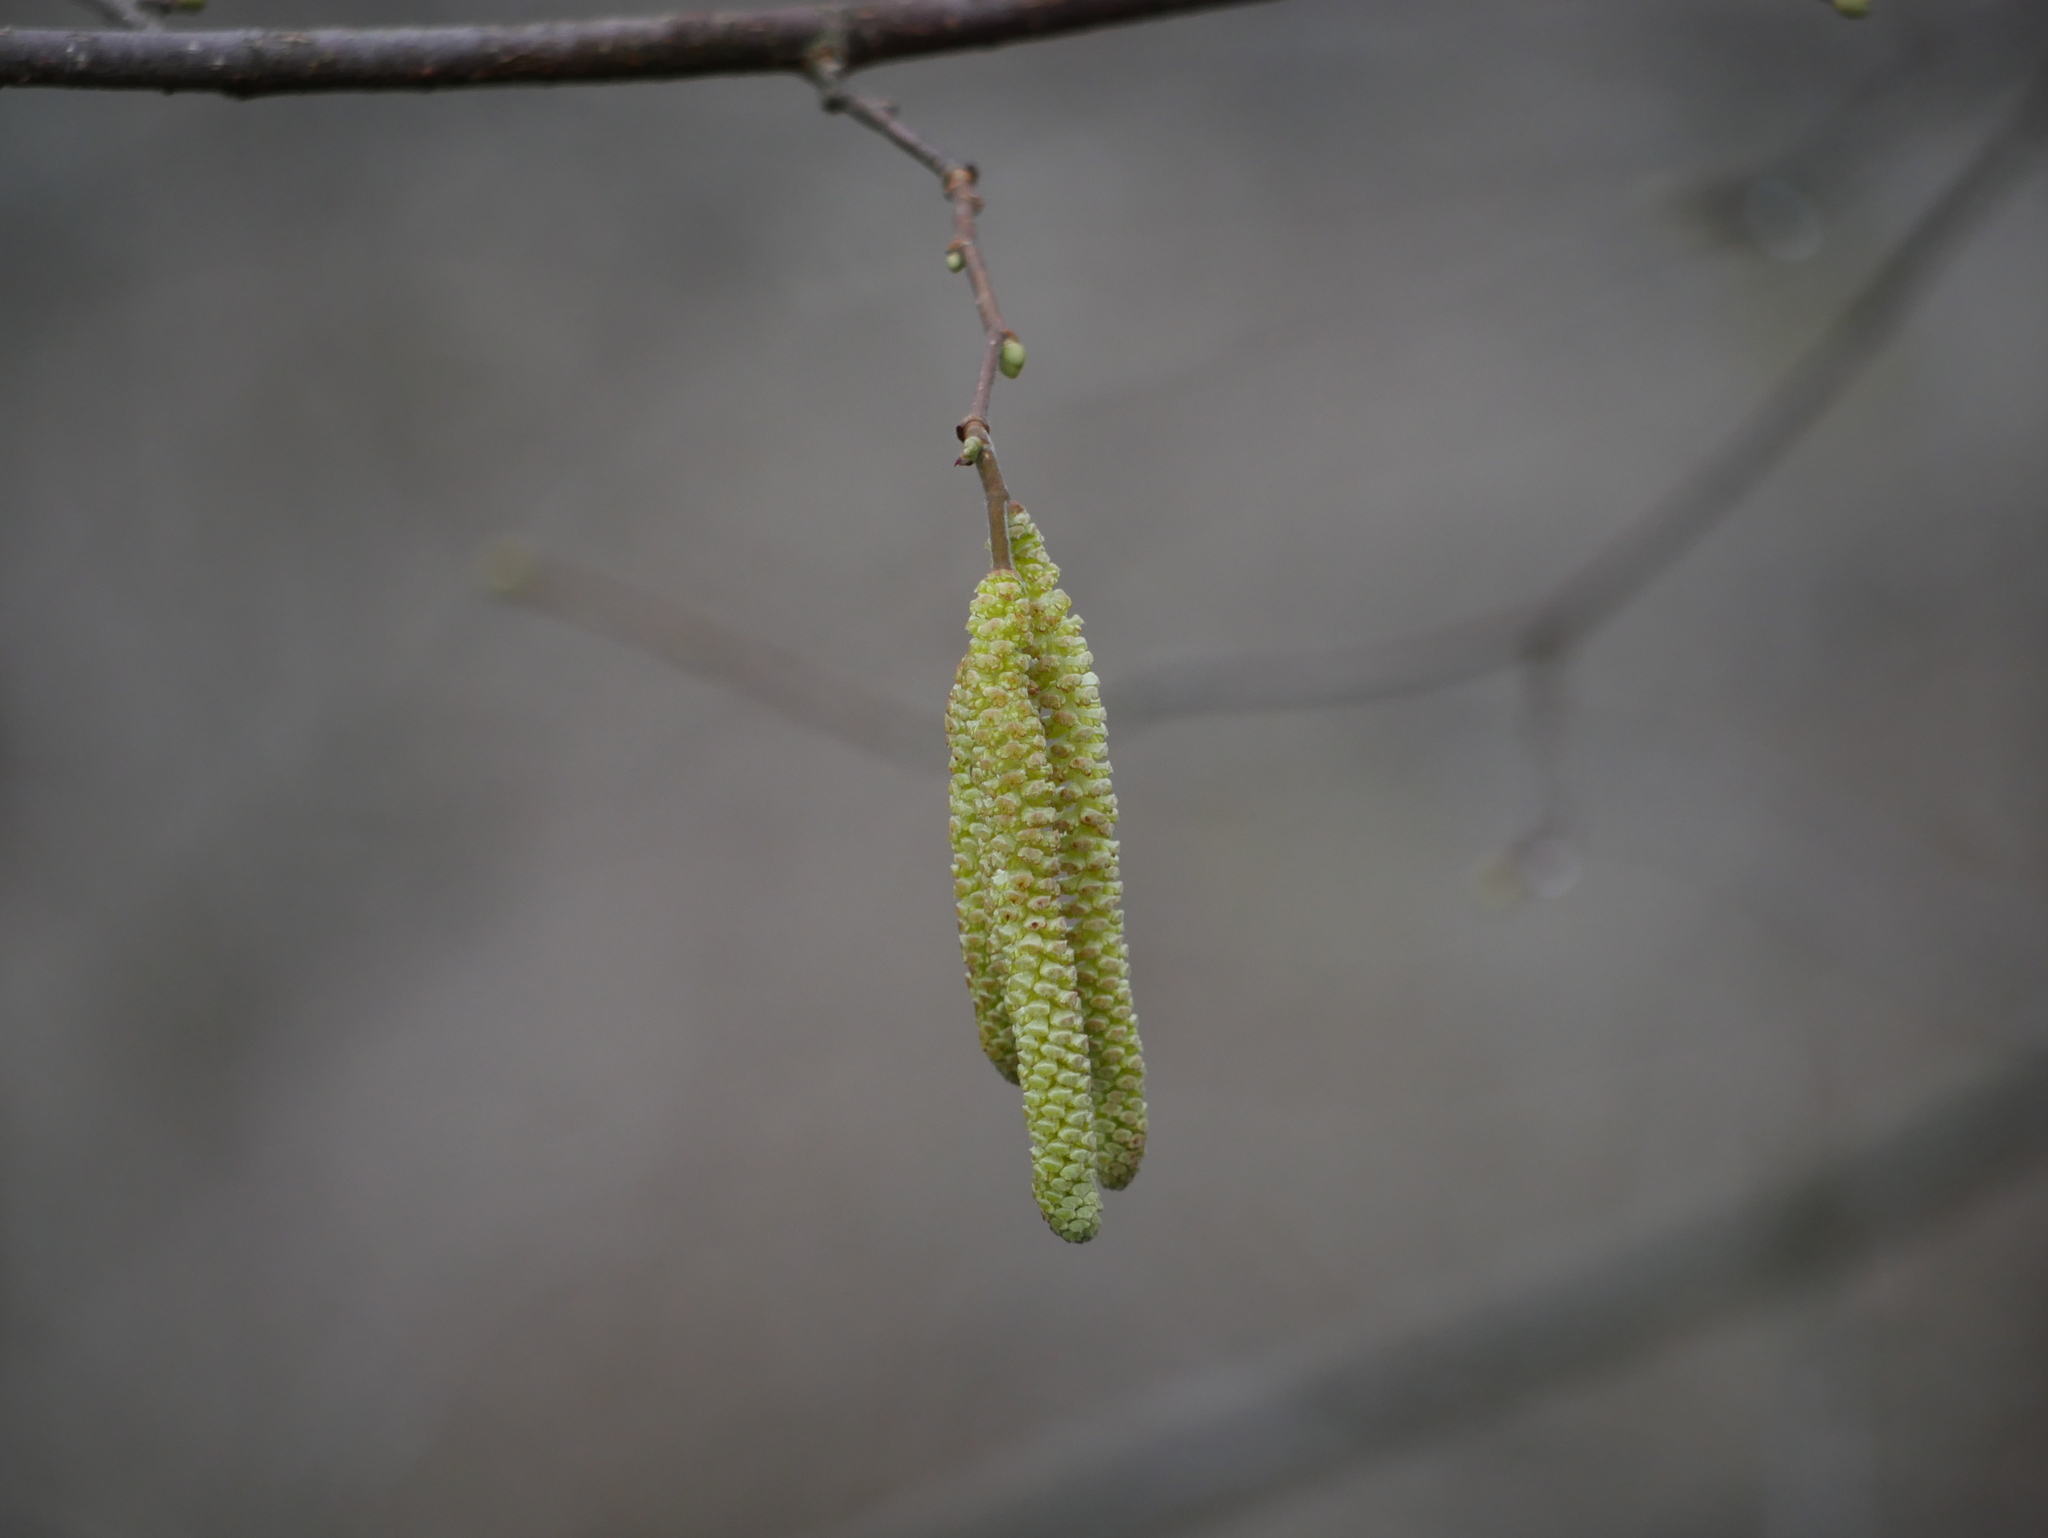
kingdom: Plantae
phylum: Tracheophyta
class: Magnoliopsida
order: Fagales
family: Betulaceae
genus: Corylus
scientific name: Corylus avellana
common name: European hazel
